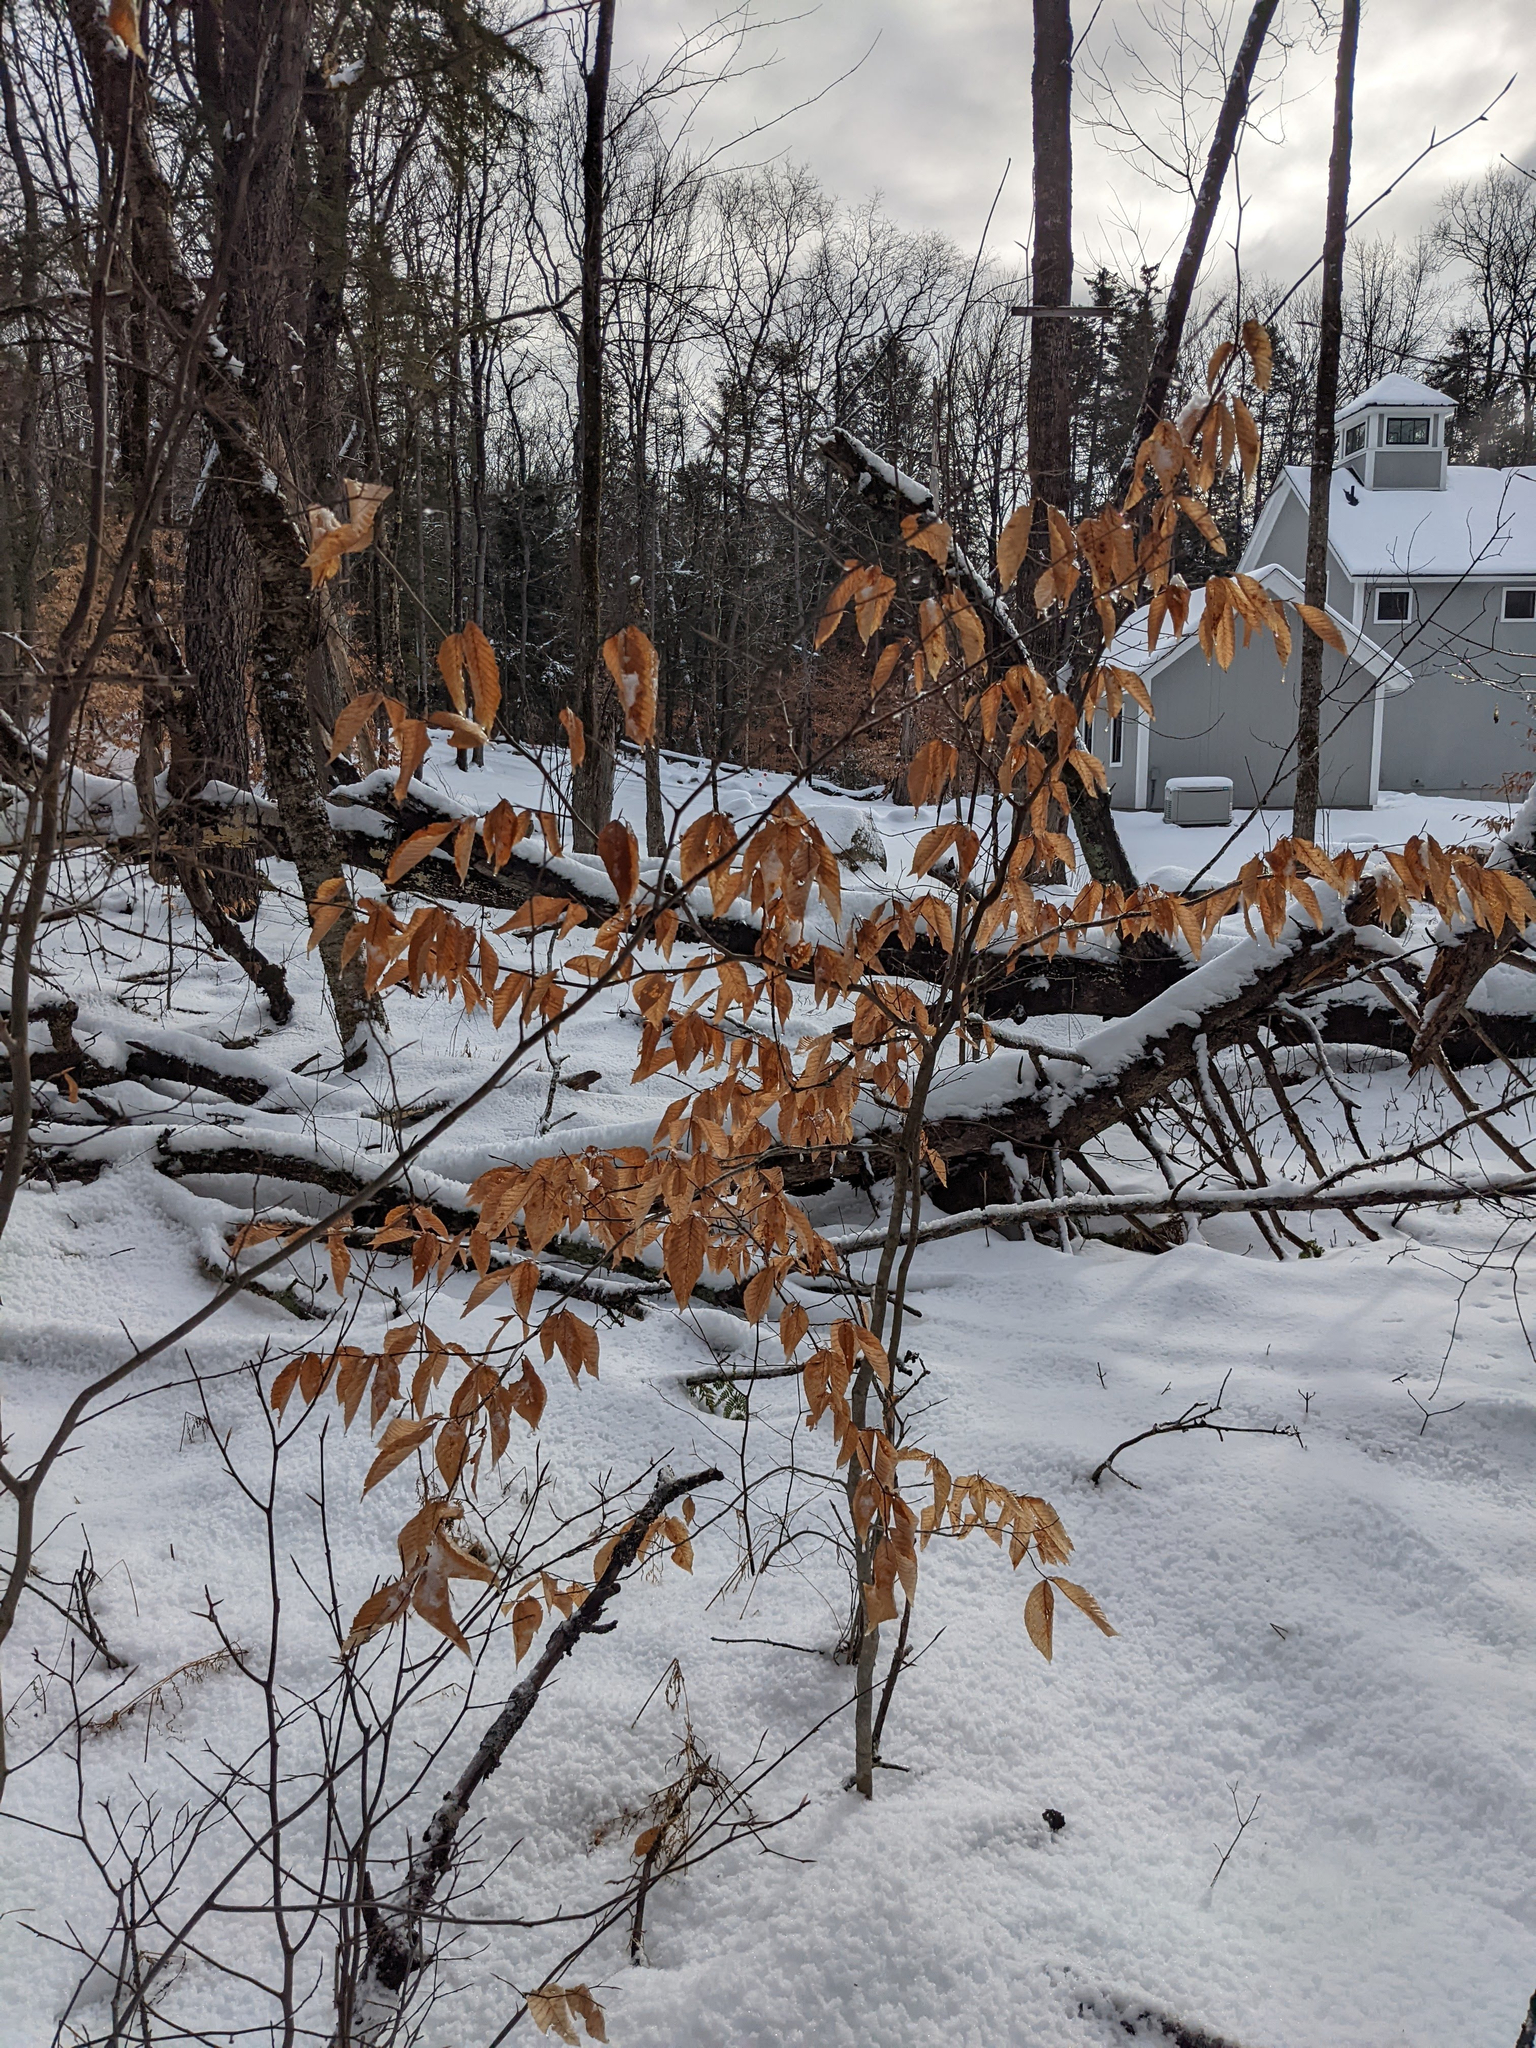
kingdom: Plantae
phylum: Tracheophyta
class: Magnoliopsida
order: Fagales
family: Fagaceae
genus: Fagus
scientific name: Fagus grandifolia
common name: American beech
